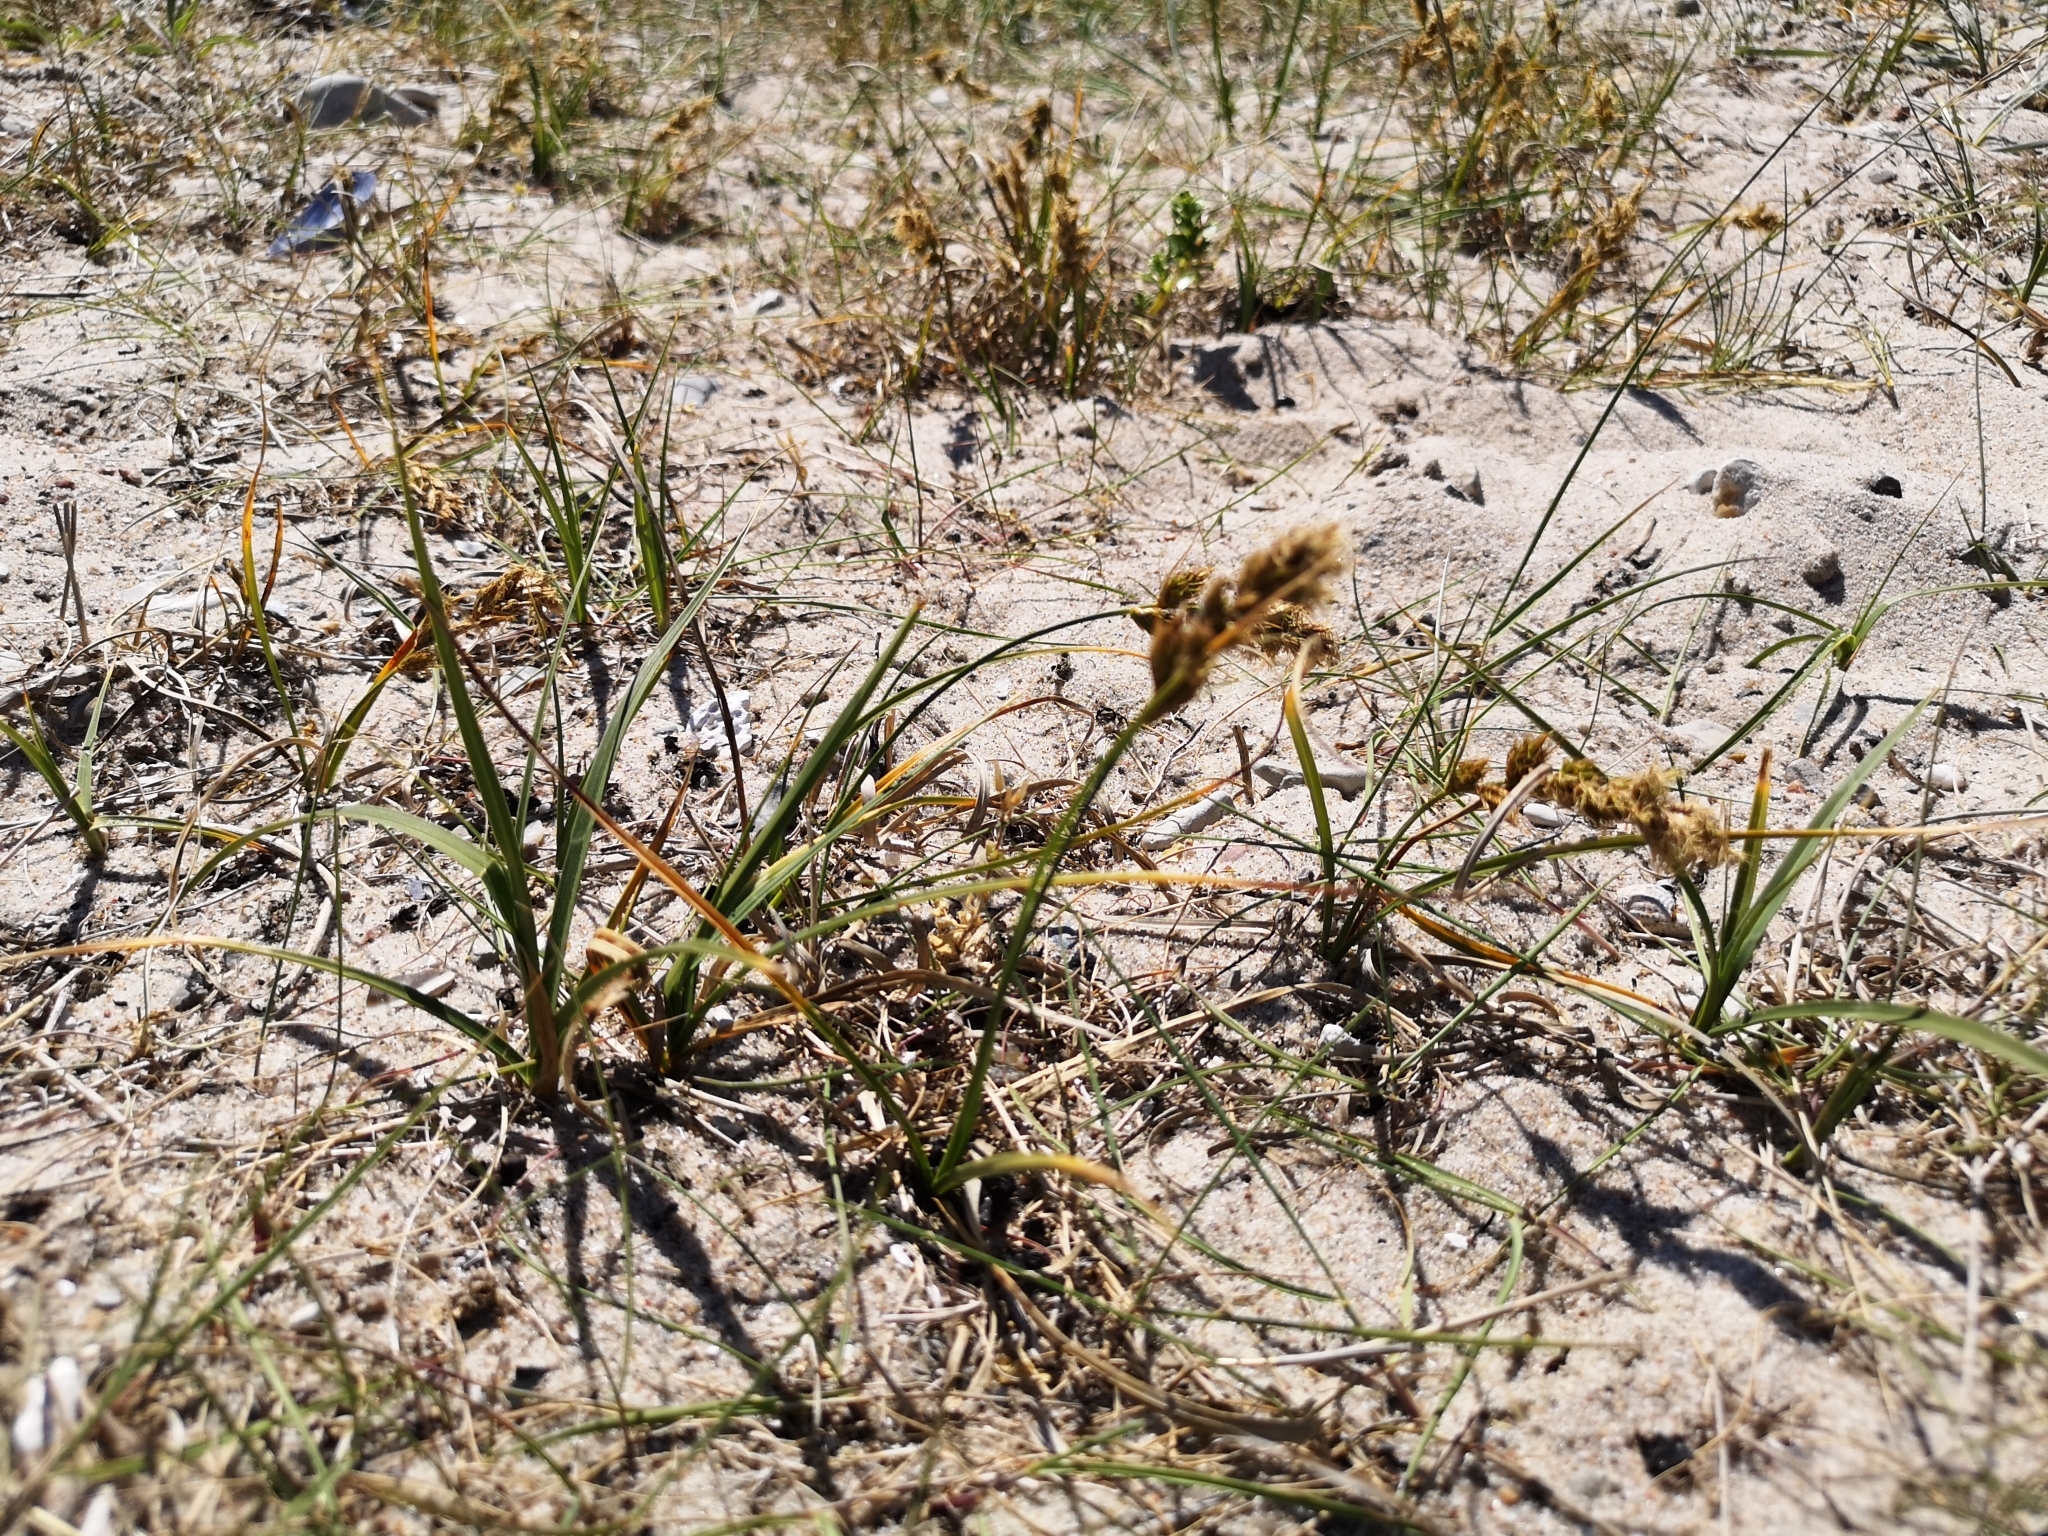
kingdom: Plantae
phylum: Tracheophyta
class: Liliopsida
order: Poales
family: Cyperaceae
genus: Carex
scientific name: Carex arenaria
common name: Sand sedge
